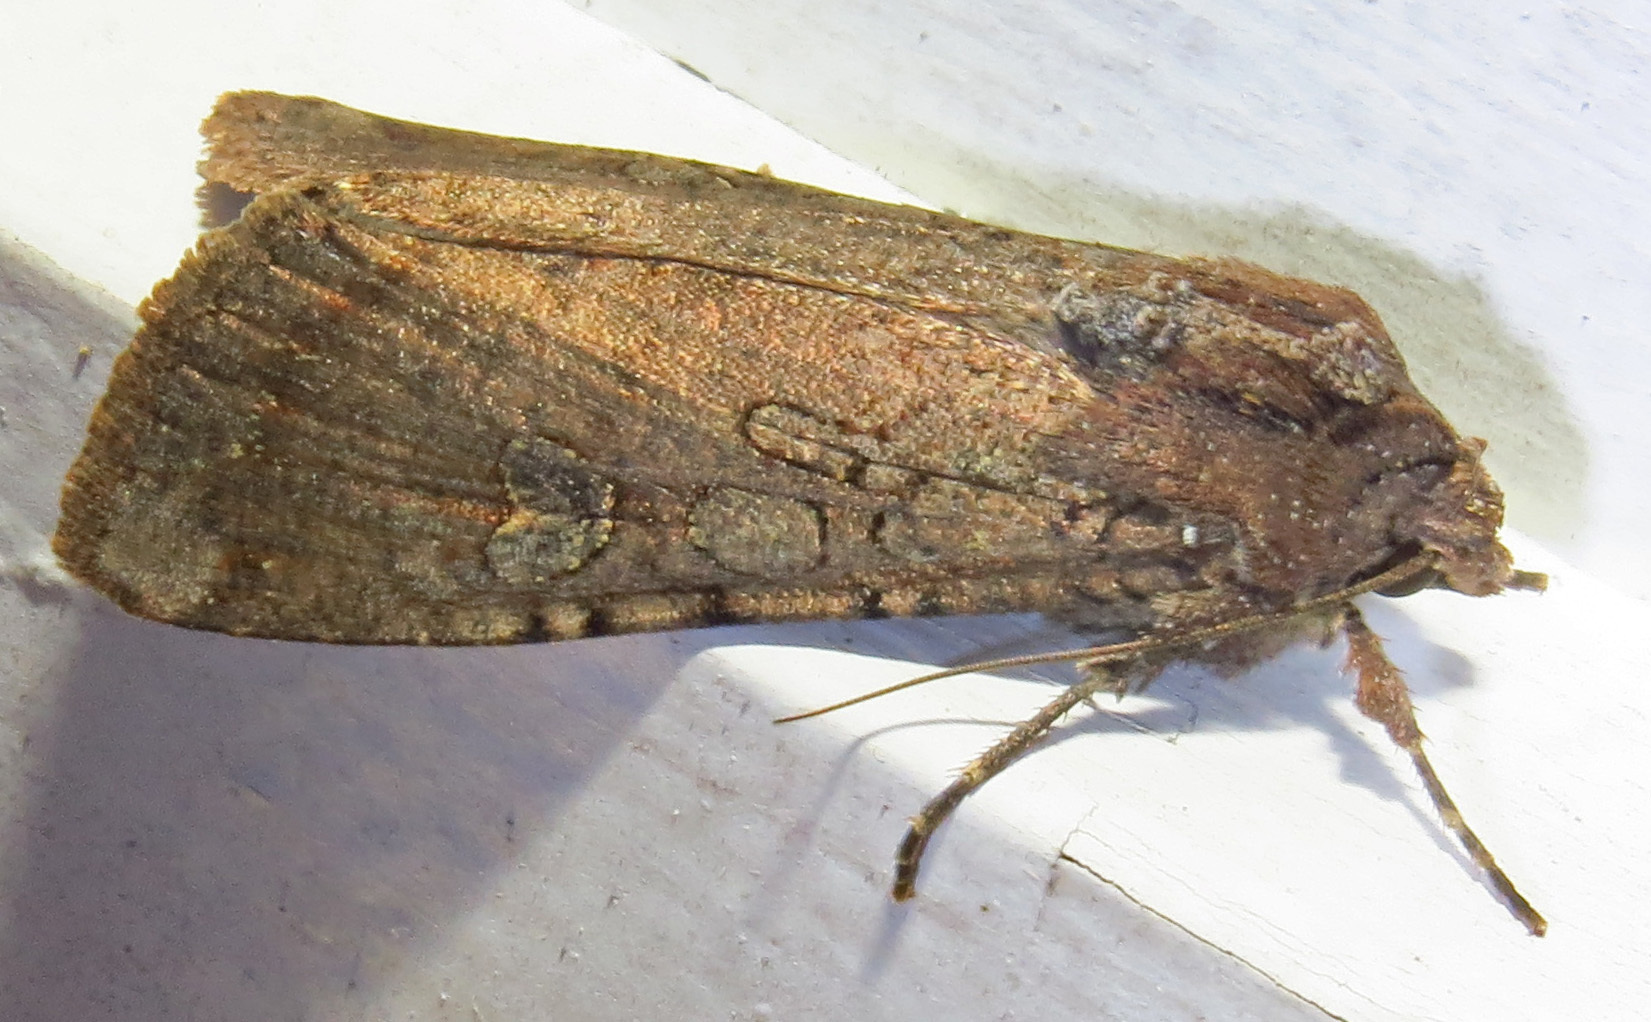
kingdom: Animalia
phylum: Arthropoda
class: Insecta
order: Lepidoptera
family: Noctuidae
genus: Peridroma
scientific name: Peridroma saucia
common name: Pearly underwing
